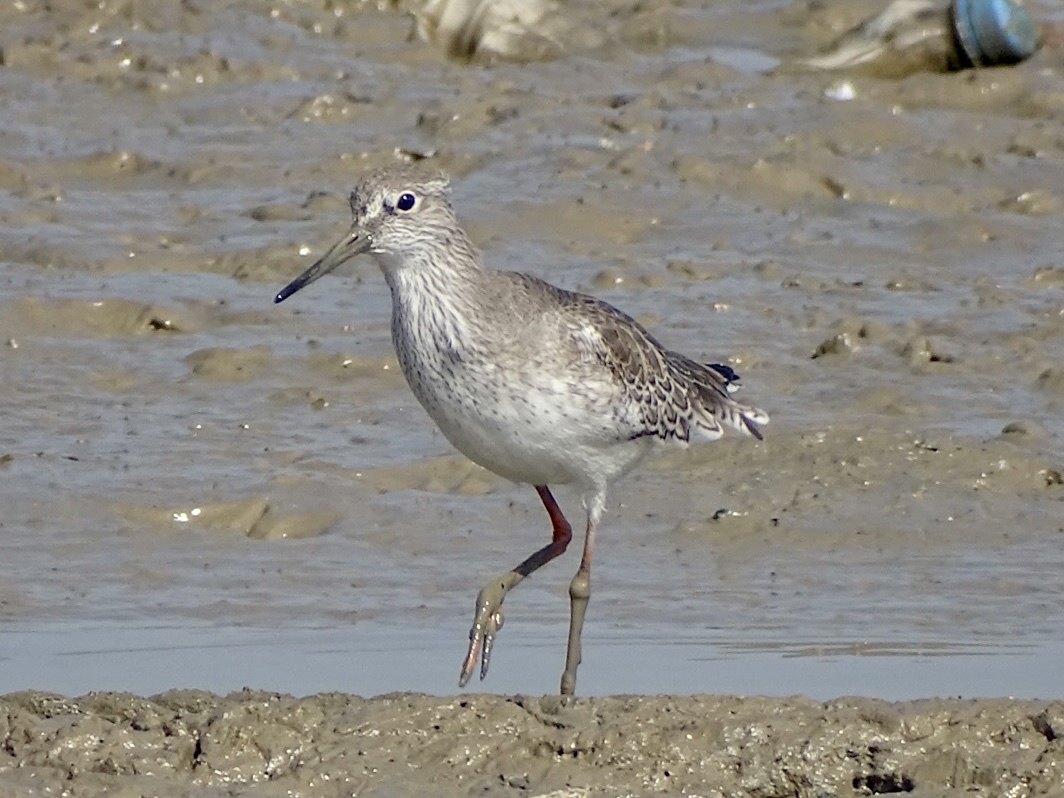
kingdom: Animalia
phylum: Chordata
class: Aves
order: Charadriiformes
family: Scolopacidae
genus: Tringa
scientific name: Tringa totanus
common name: Common redshank
